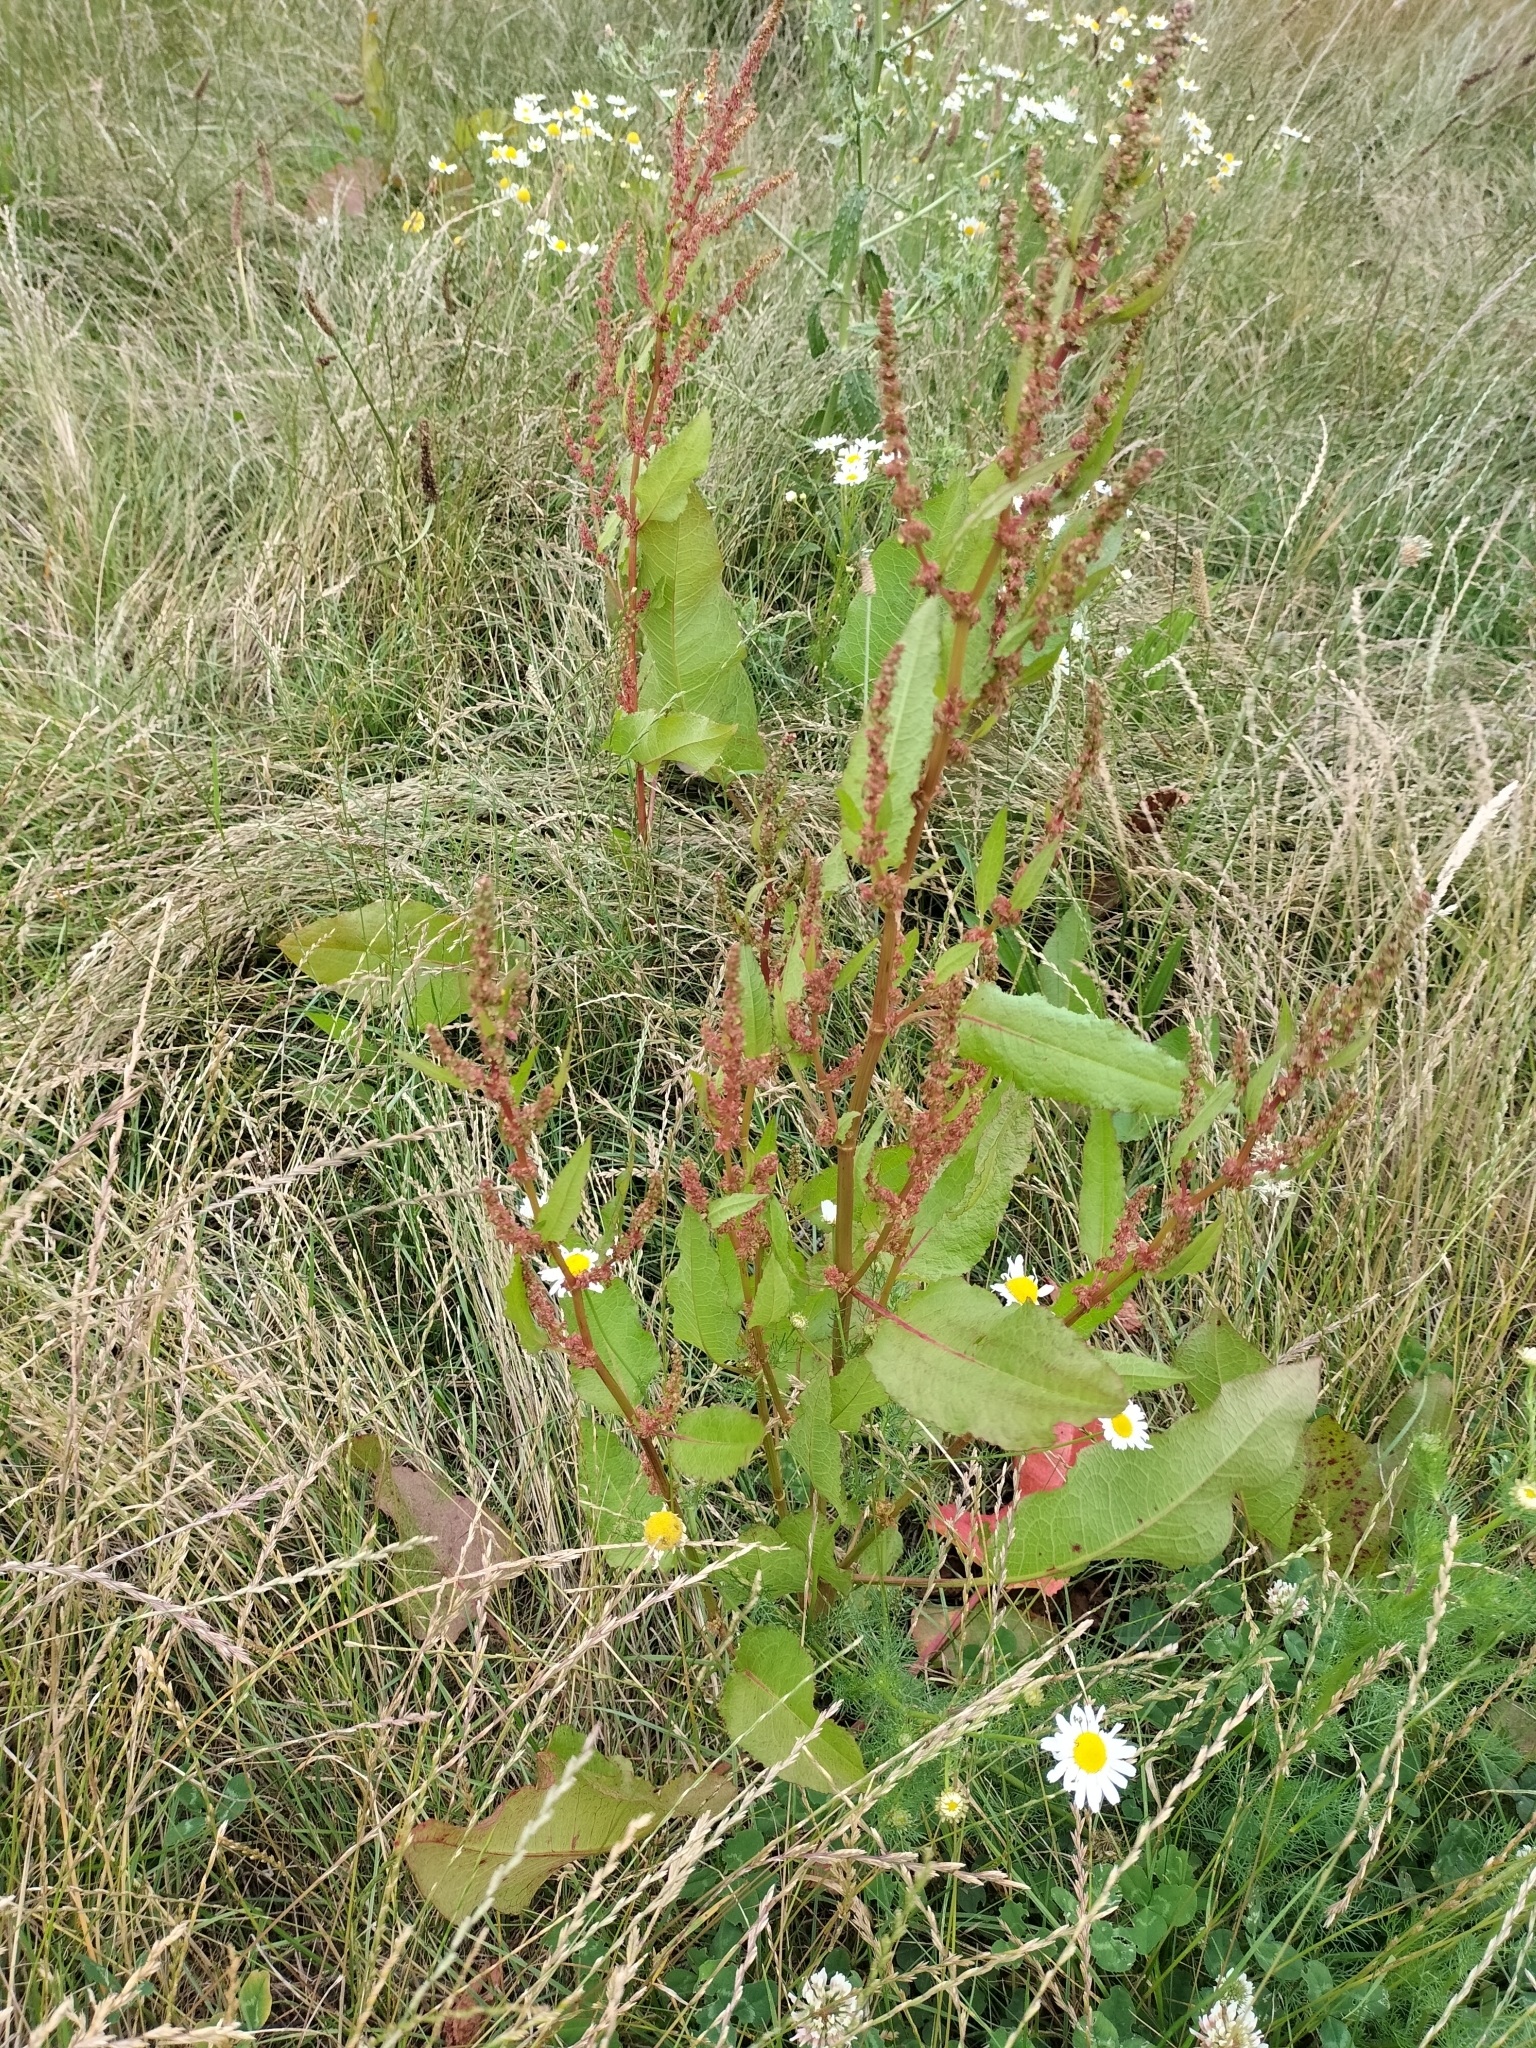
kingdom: Plantae
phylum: Tracheophyta
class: Magnoliopsida
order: Caryophyllales
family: Polygonaceae
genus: Rumex
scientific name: Rumex obtusifolius
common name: Bitter dock
